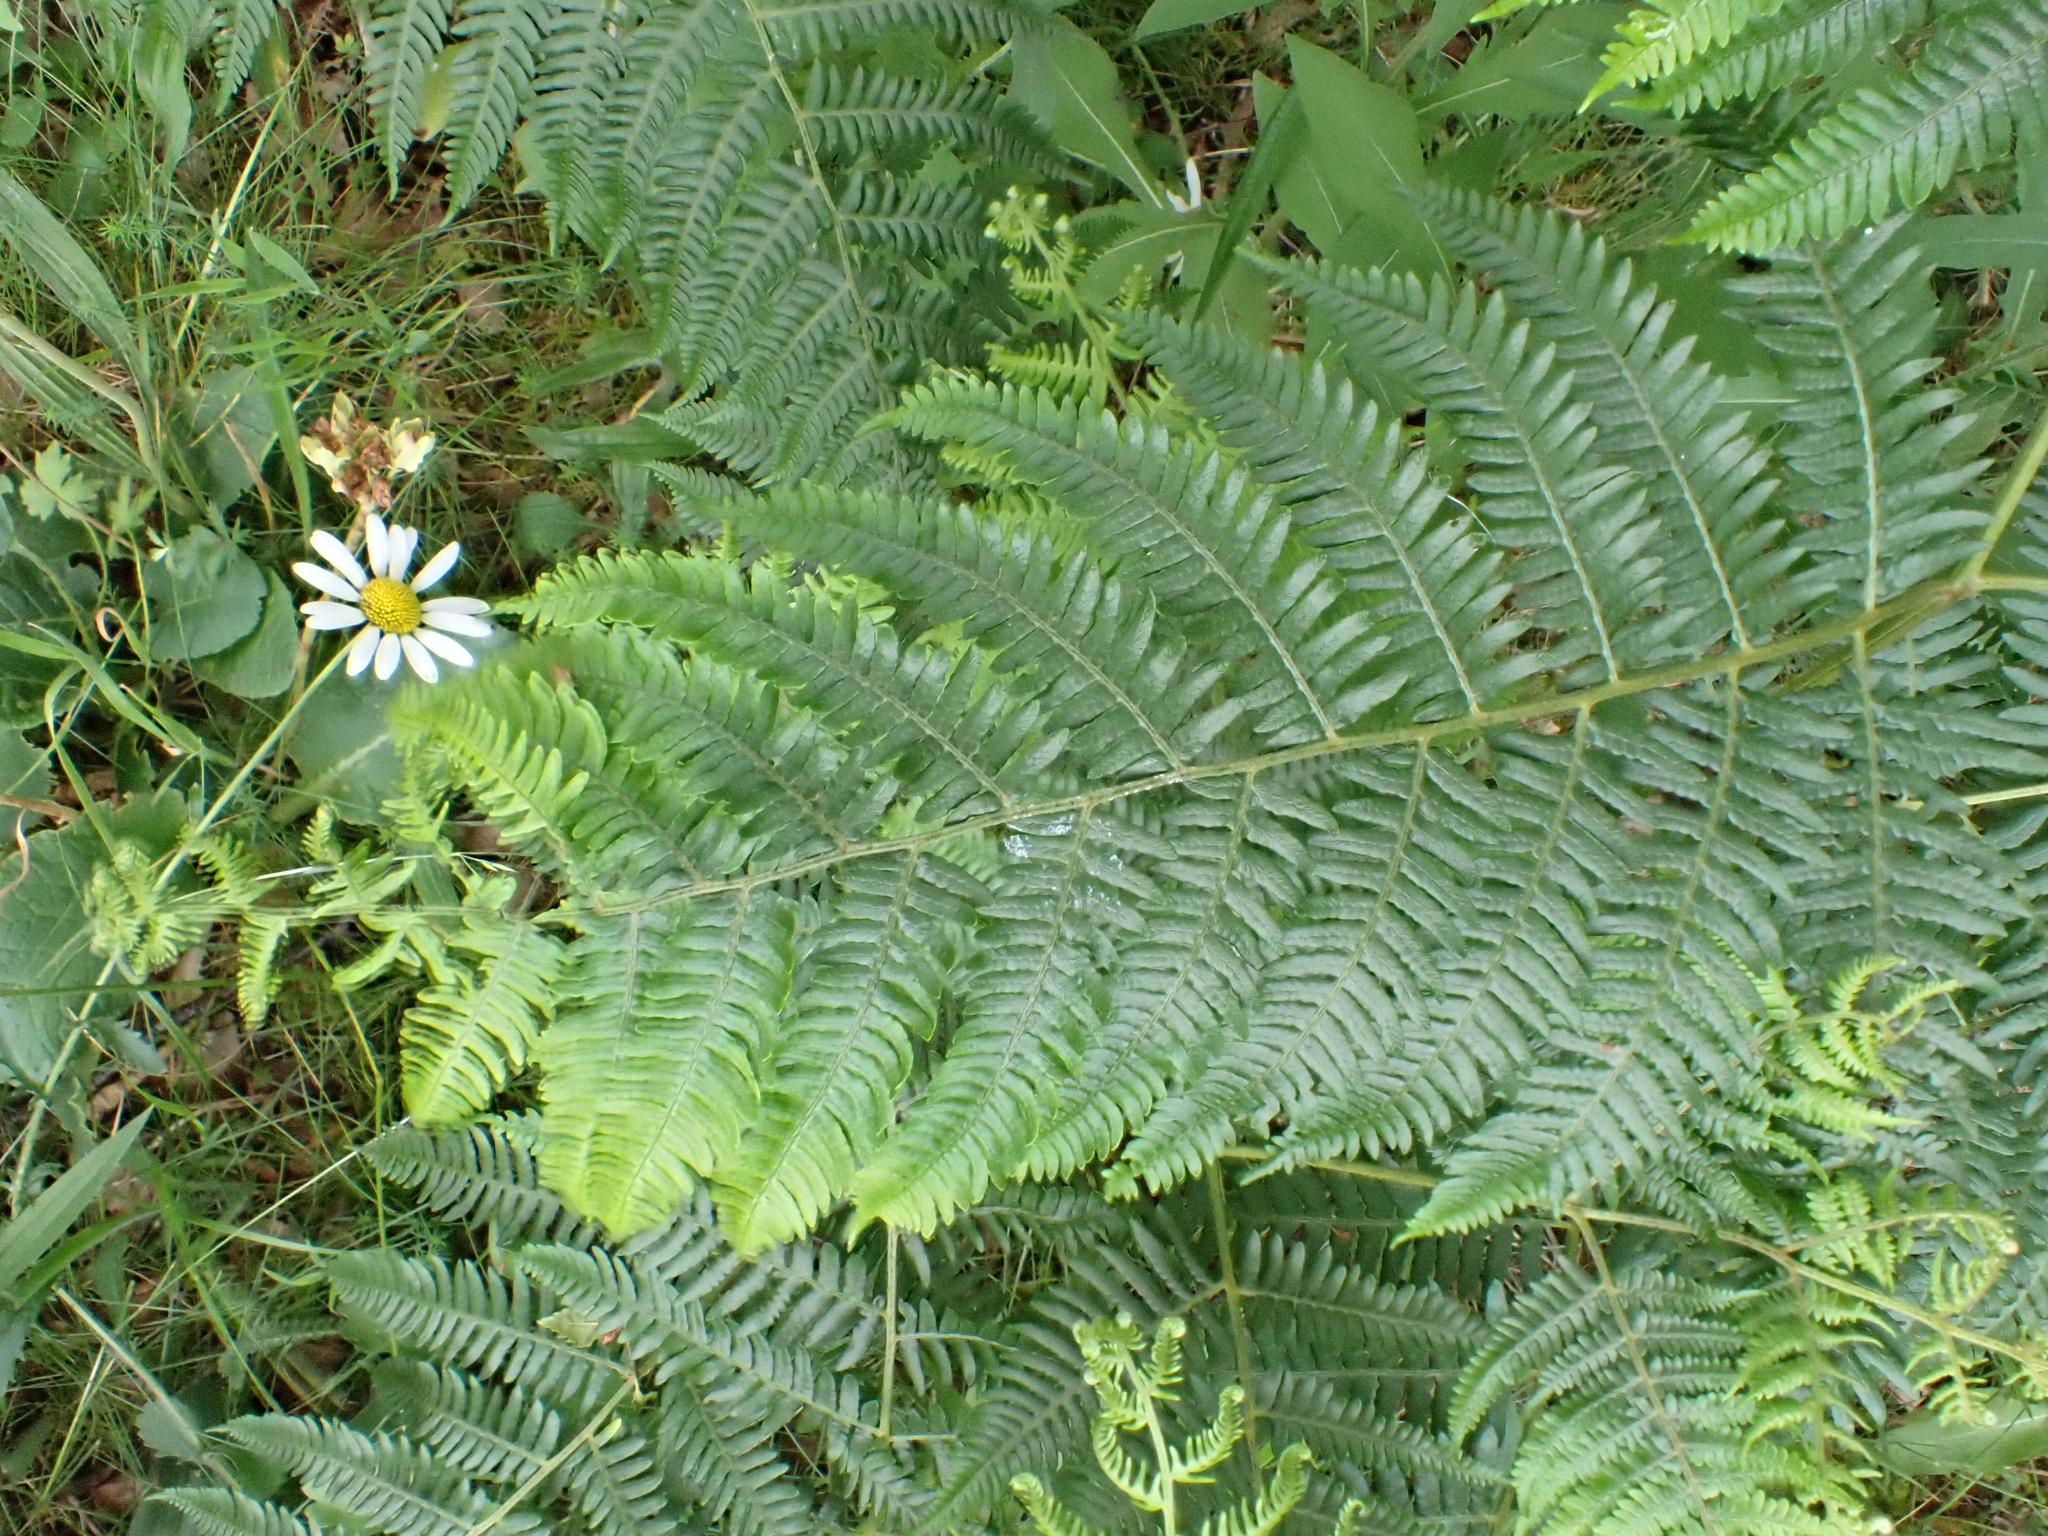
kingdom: Plantae
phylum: Tracheophyta
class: Polypodiopsida
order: Polypodiales
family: Dennstaedtiaceae
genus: Pteridium
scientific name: Pteridium aquilinum
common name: Bracken
